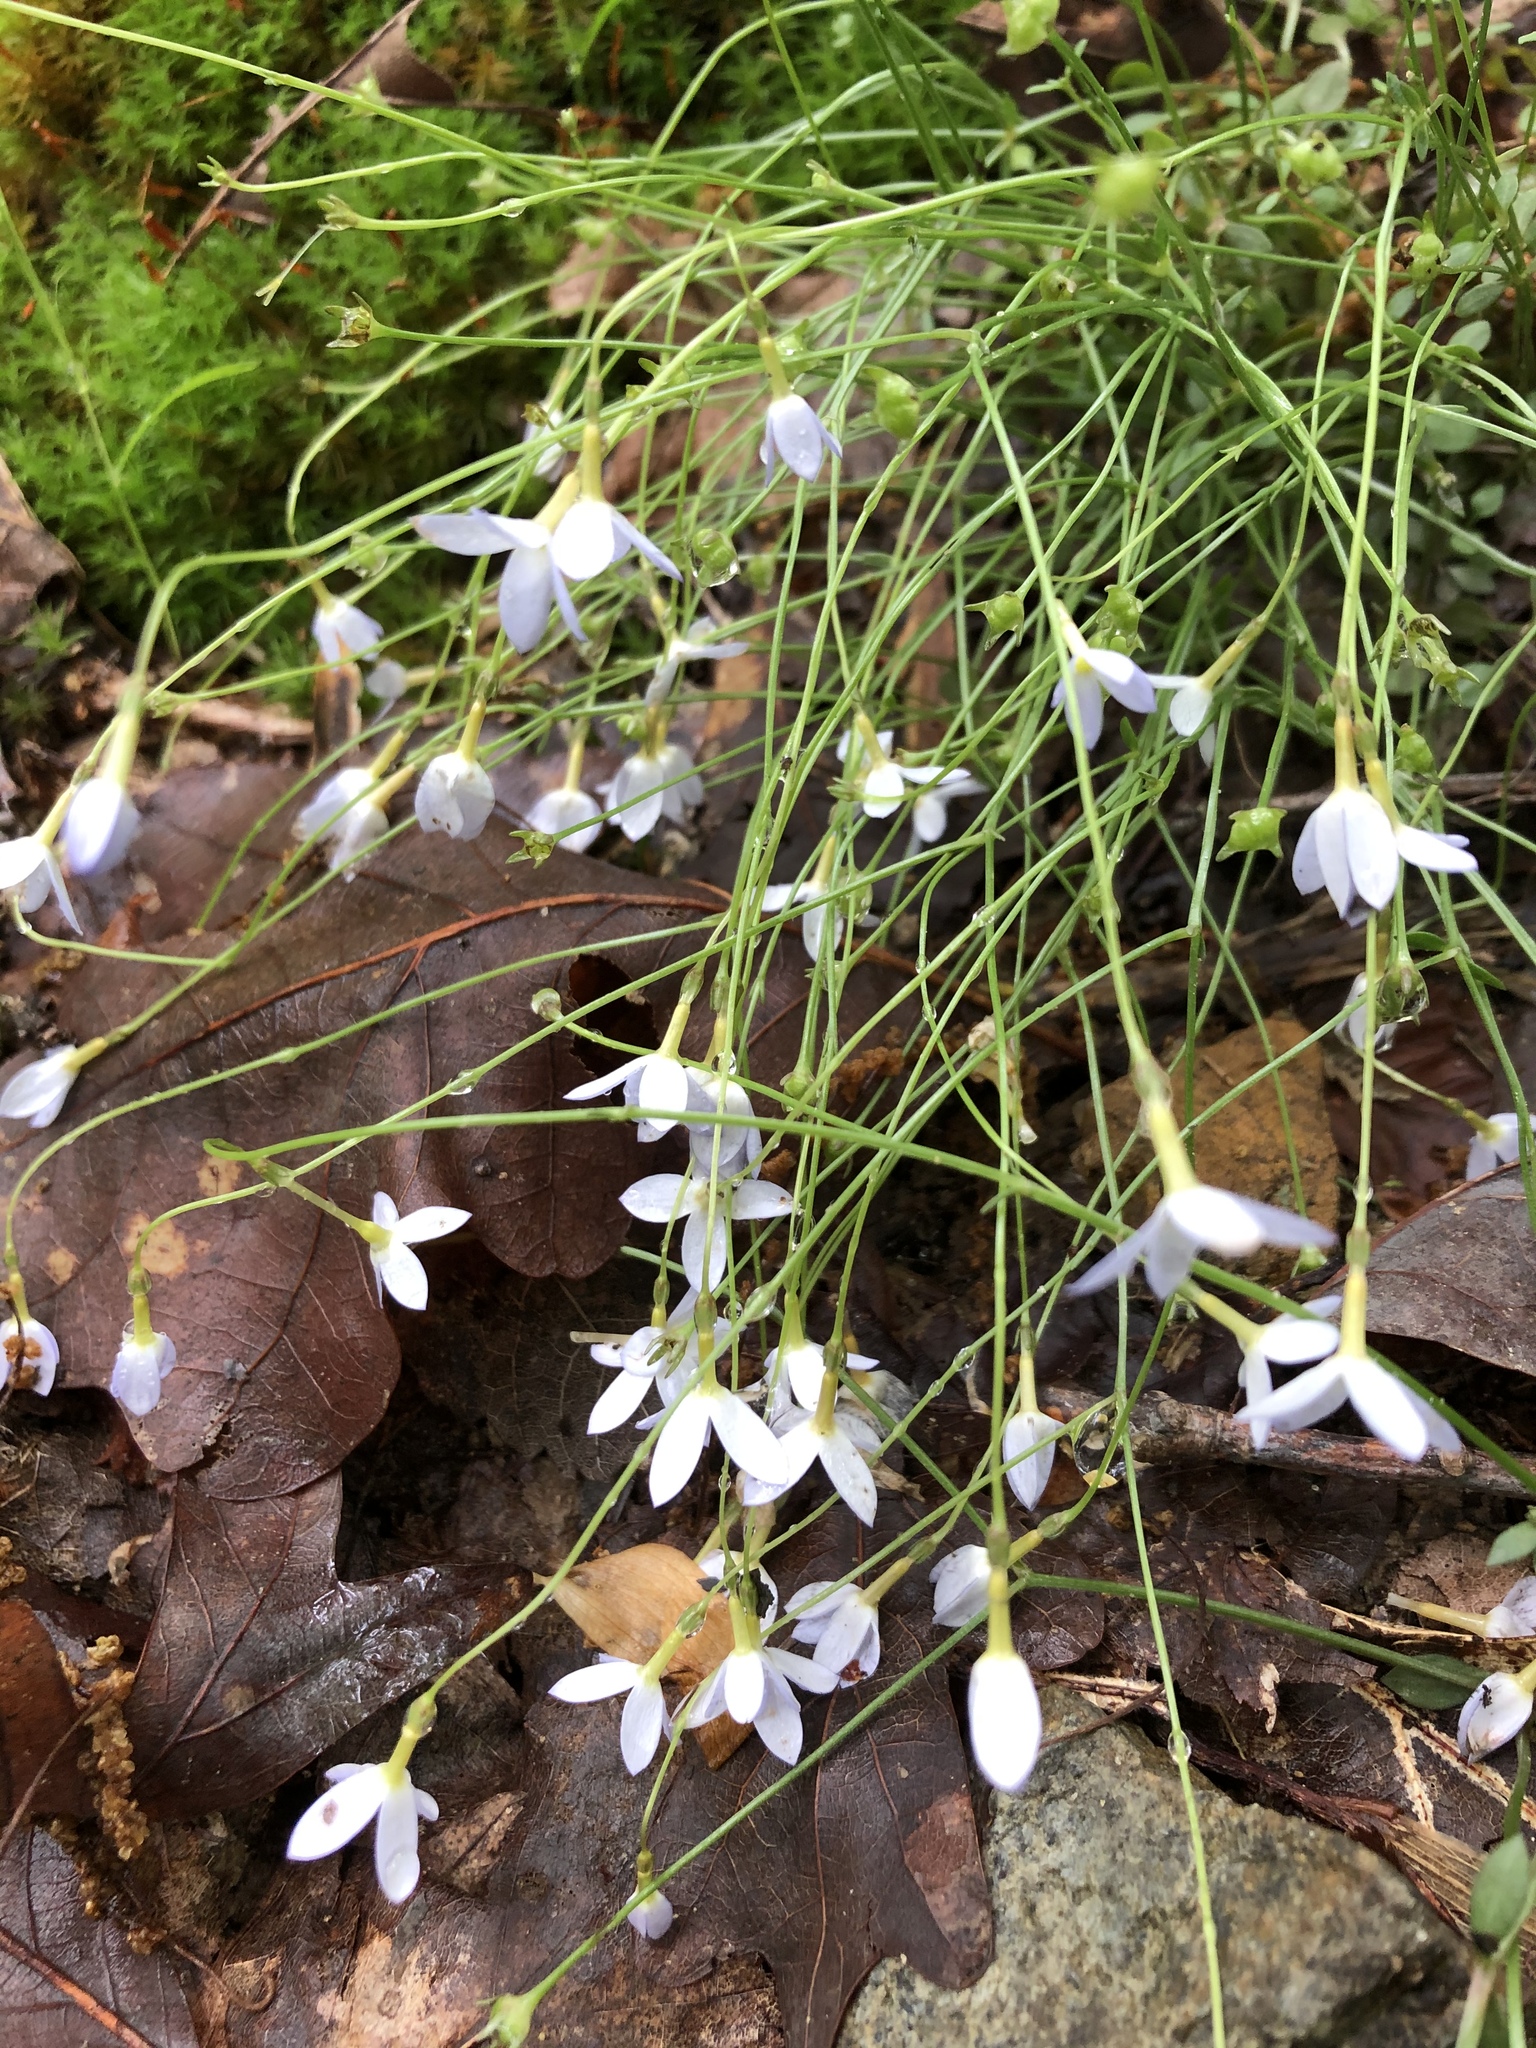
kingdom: Plantae
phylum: Tracheophyta
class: Magnoliopsida
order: Gentianales
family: Rubiaceae
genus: Houstonia
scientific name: Houstonia caerulea
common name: Bluets
